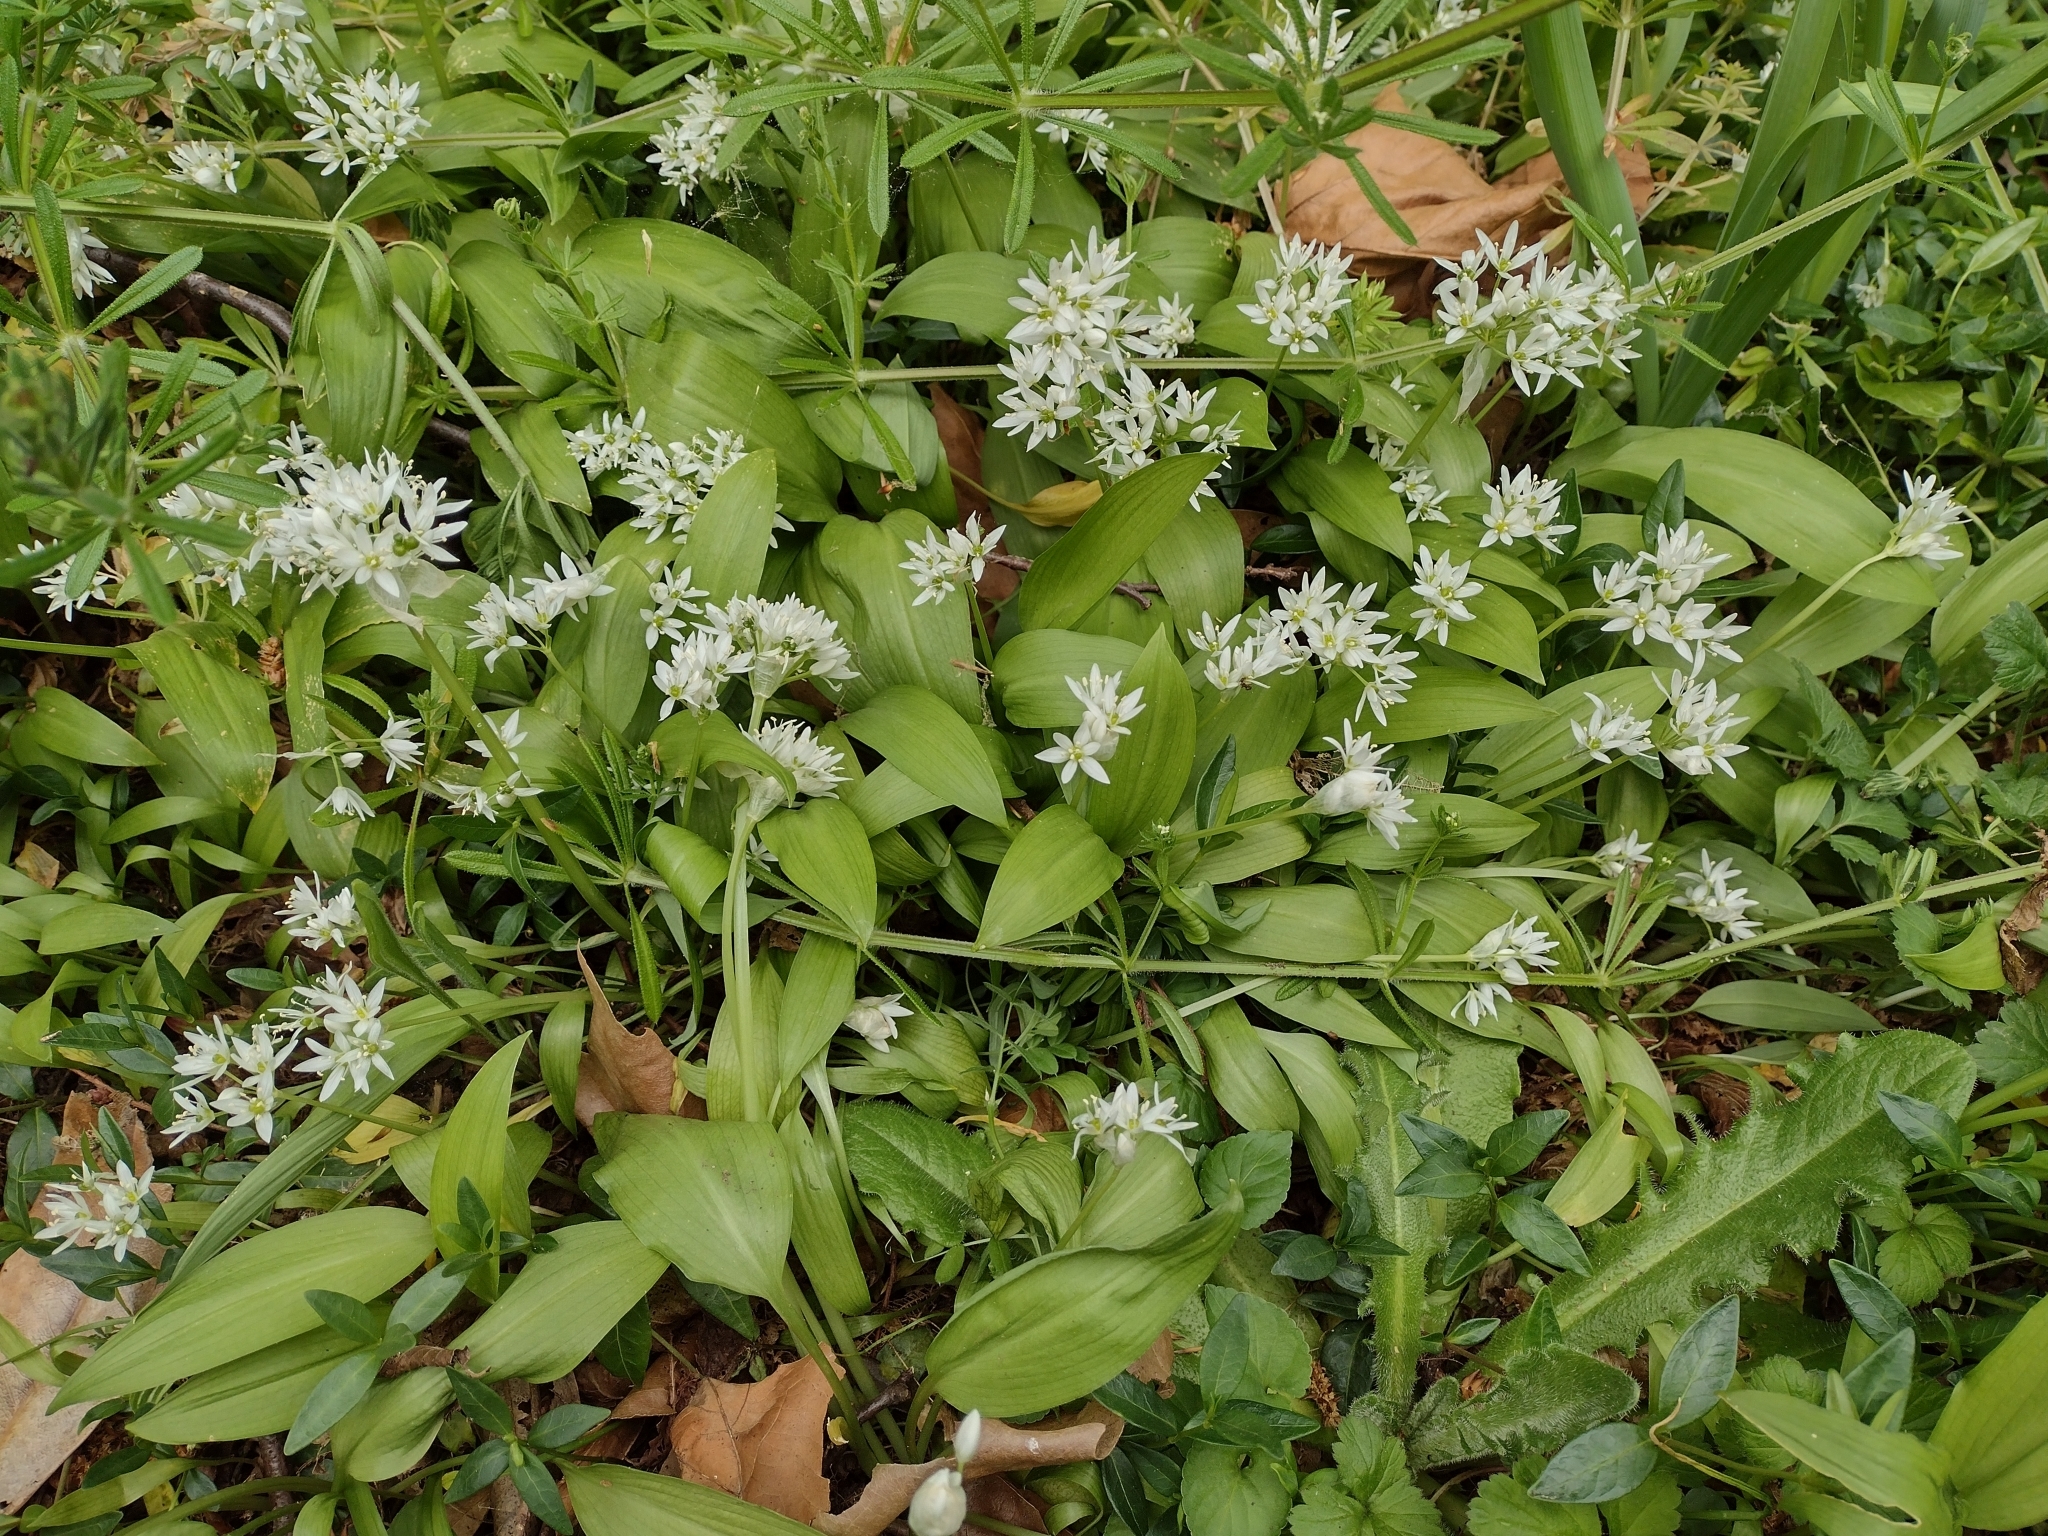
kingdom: Plantae
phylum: Tracheophyta
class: Liliopsida
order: Asparagales
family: Amaryllidaceae
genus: Allium
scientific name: Allium ursinum
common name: Ramsons
